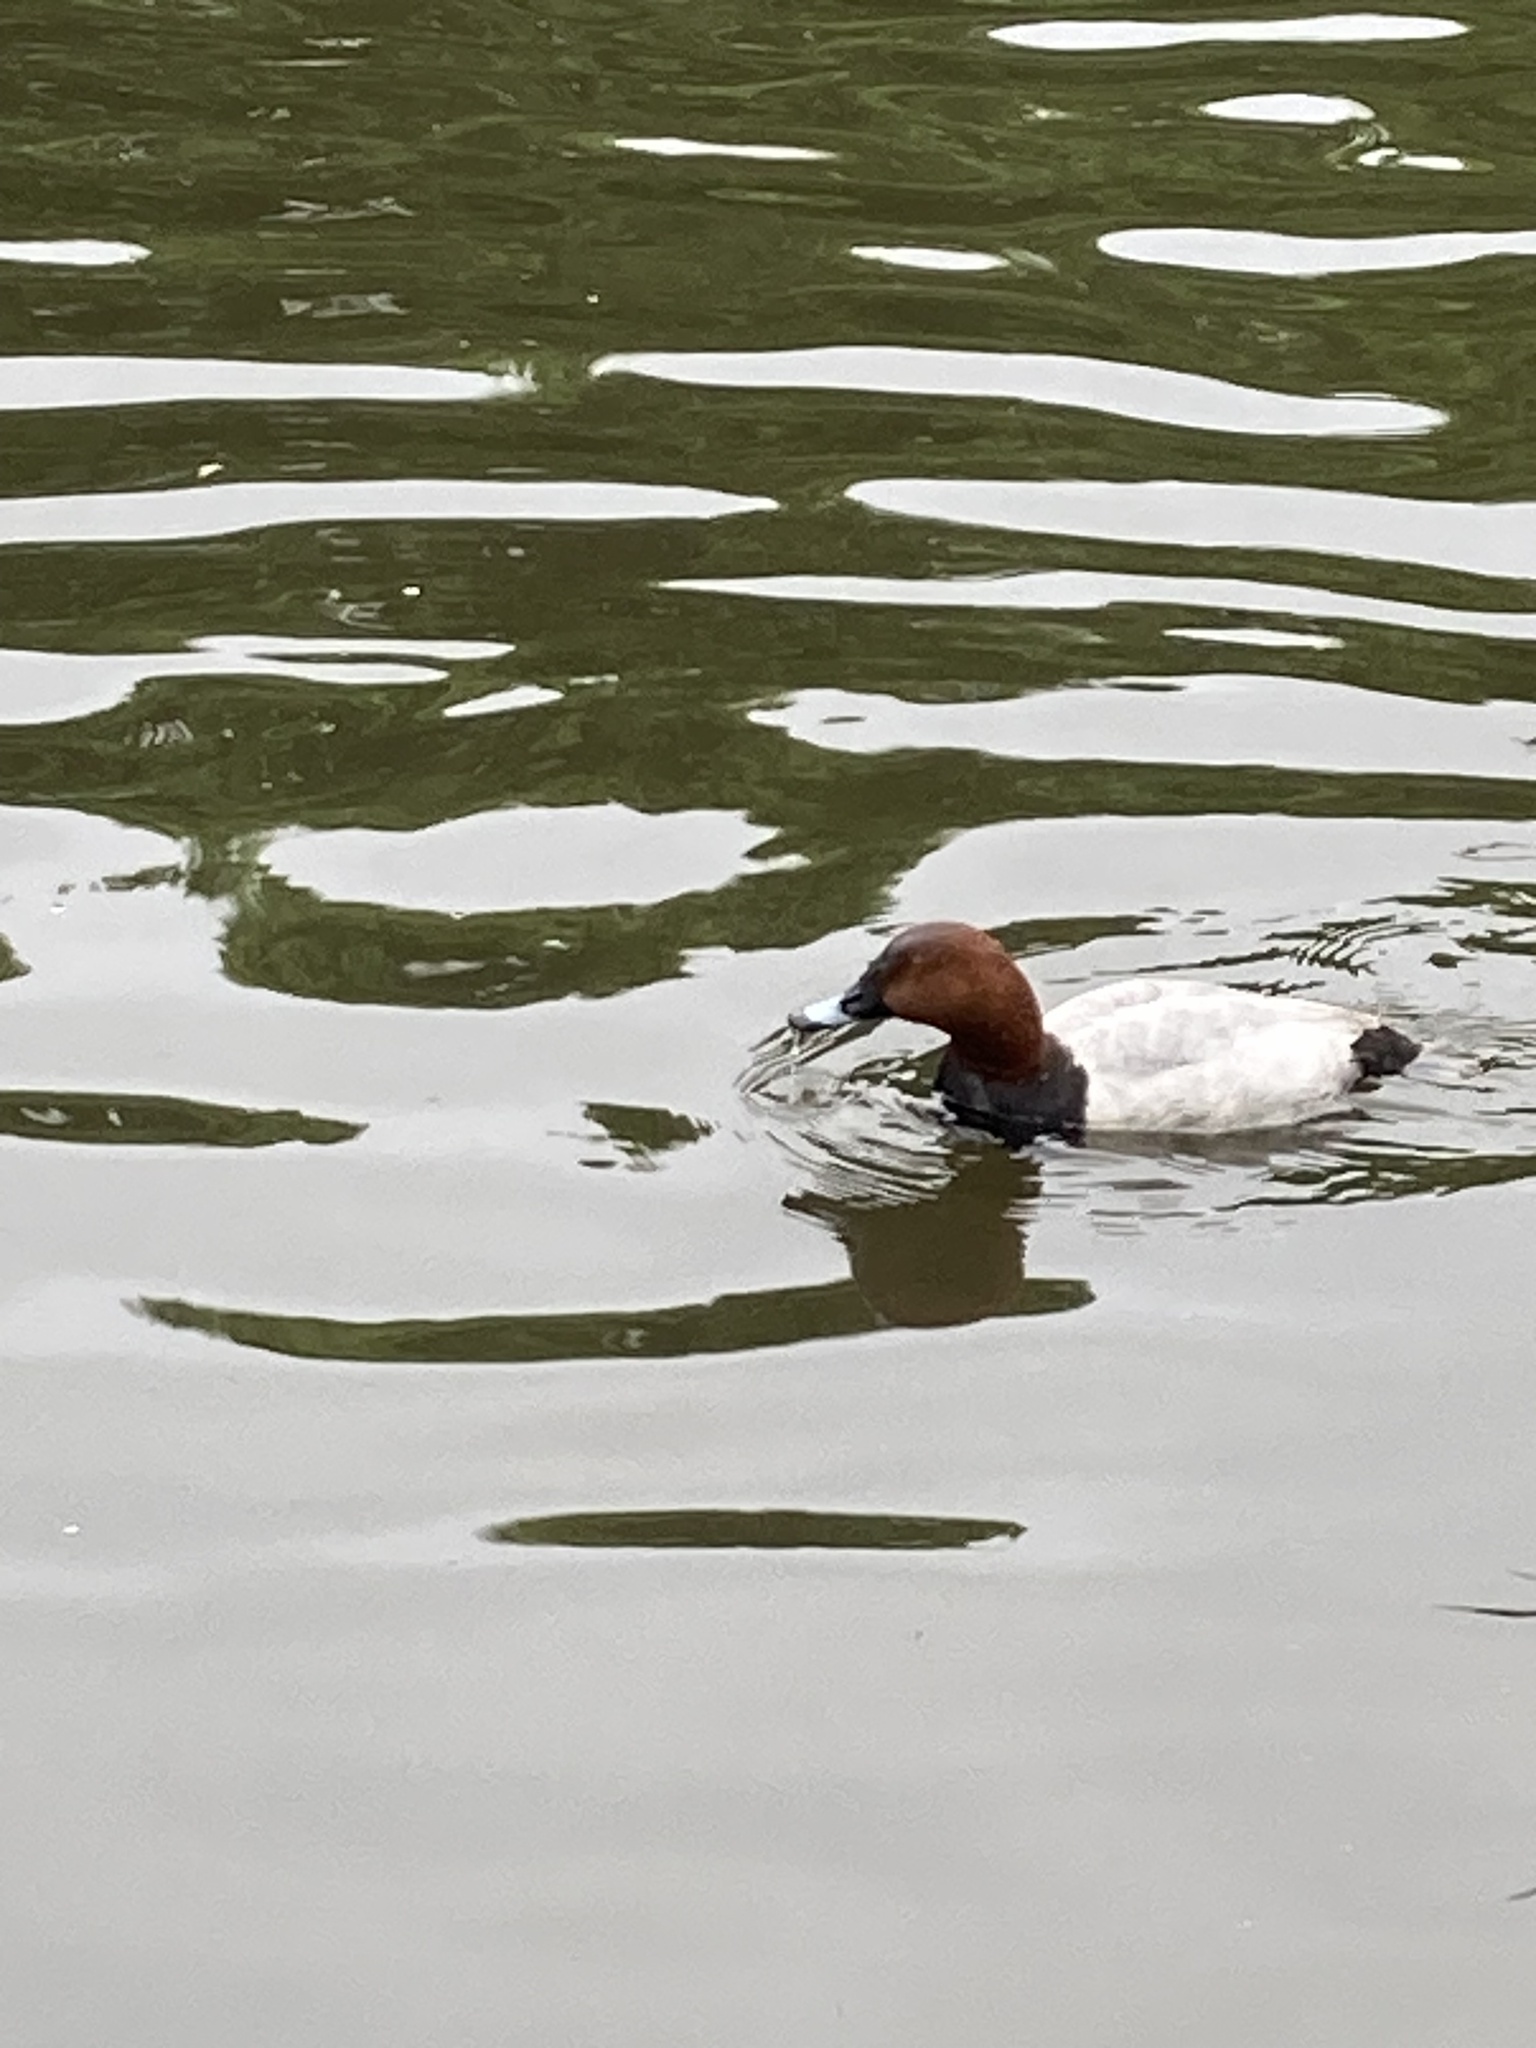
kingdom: Animalia
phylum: Chordata
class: Aves
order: Anseriformes
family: Anatidae
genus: Aythya
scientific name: Aythya ferina
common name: Common pochard
